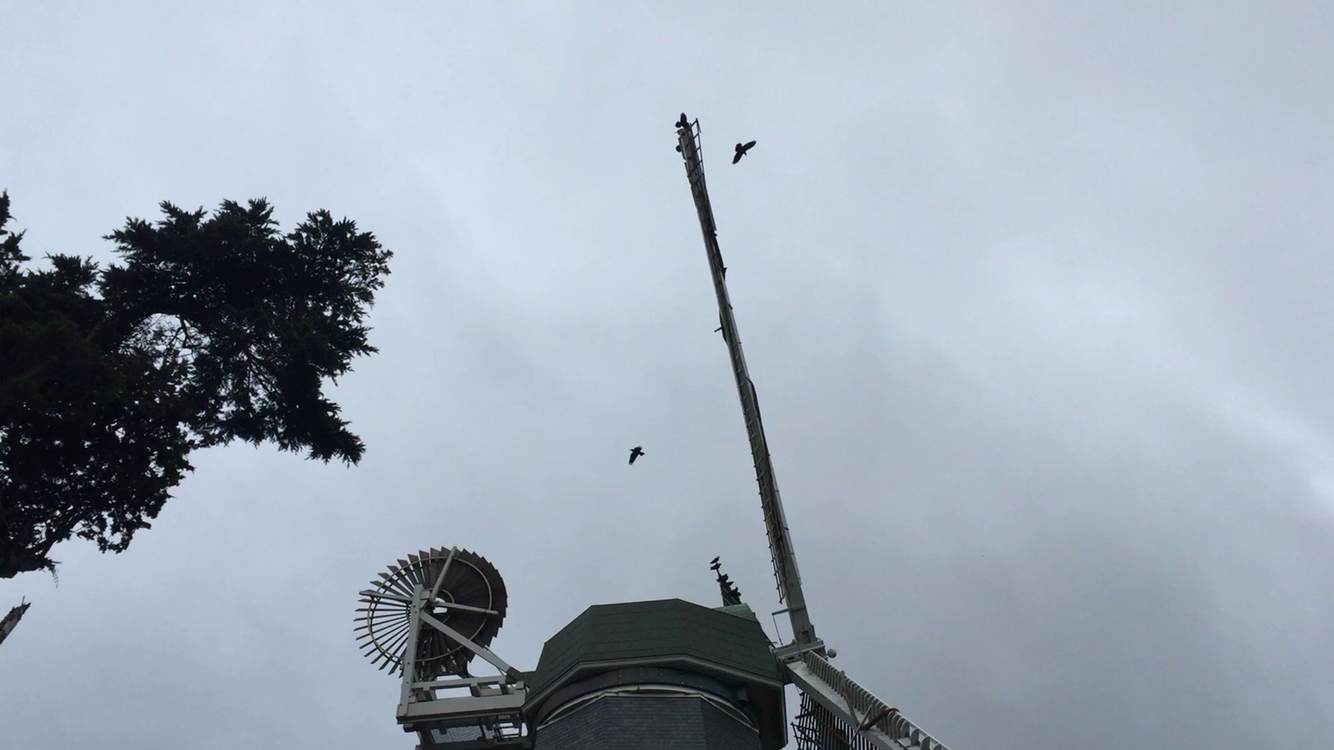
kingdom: Animalia
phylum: Chordata
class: Aves
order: Passeriformes
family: Corvidae
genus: Corvus
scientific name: Corvus corax
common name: Common raven
